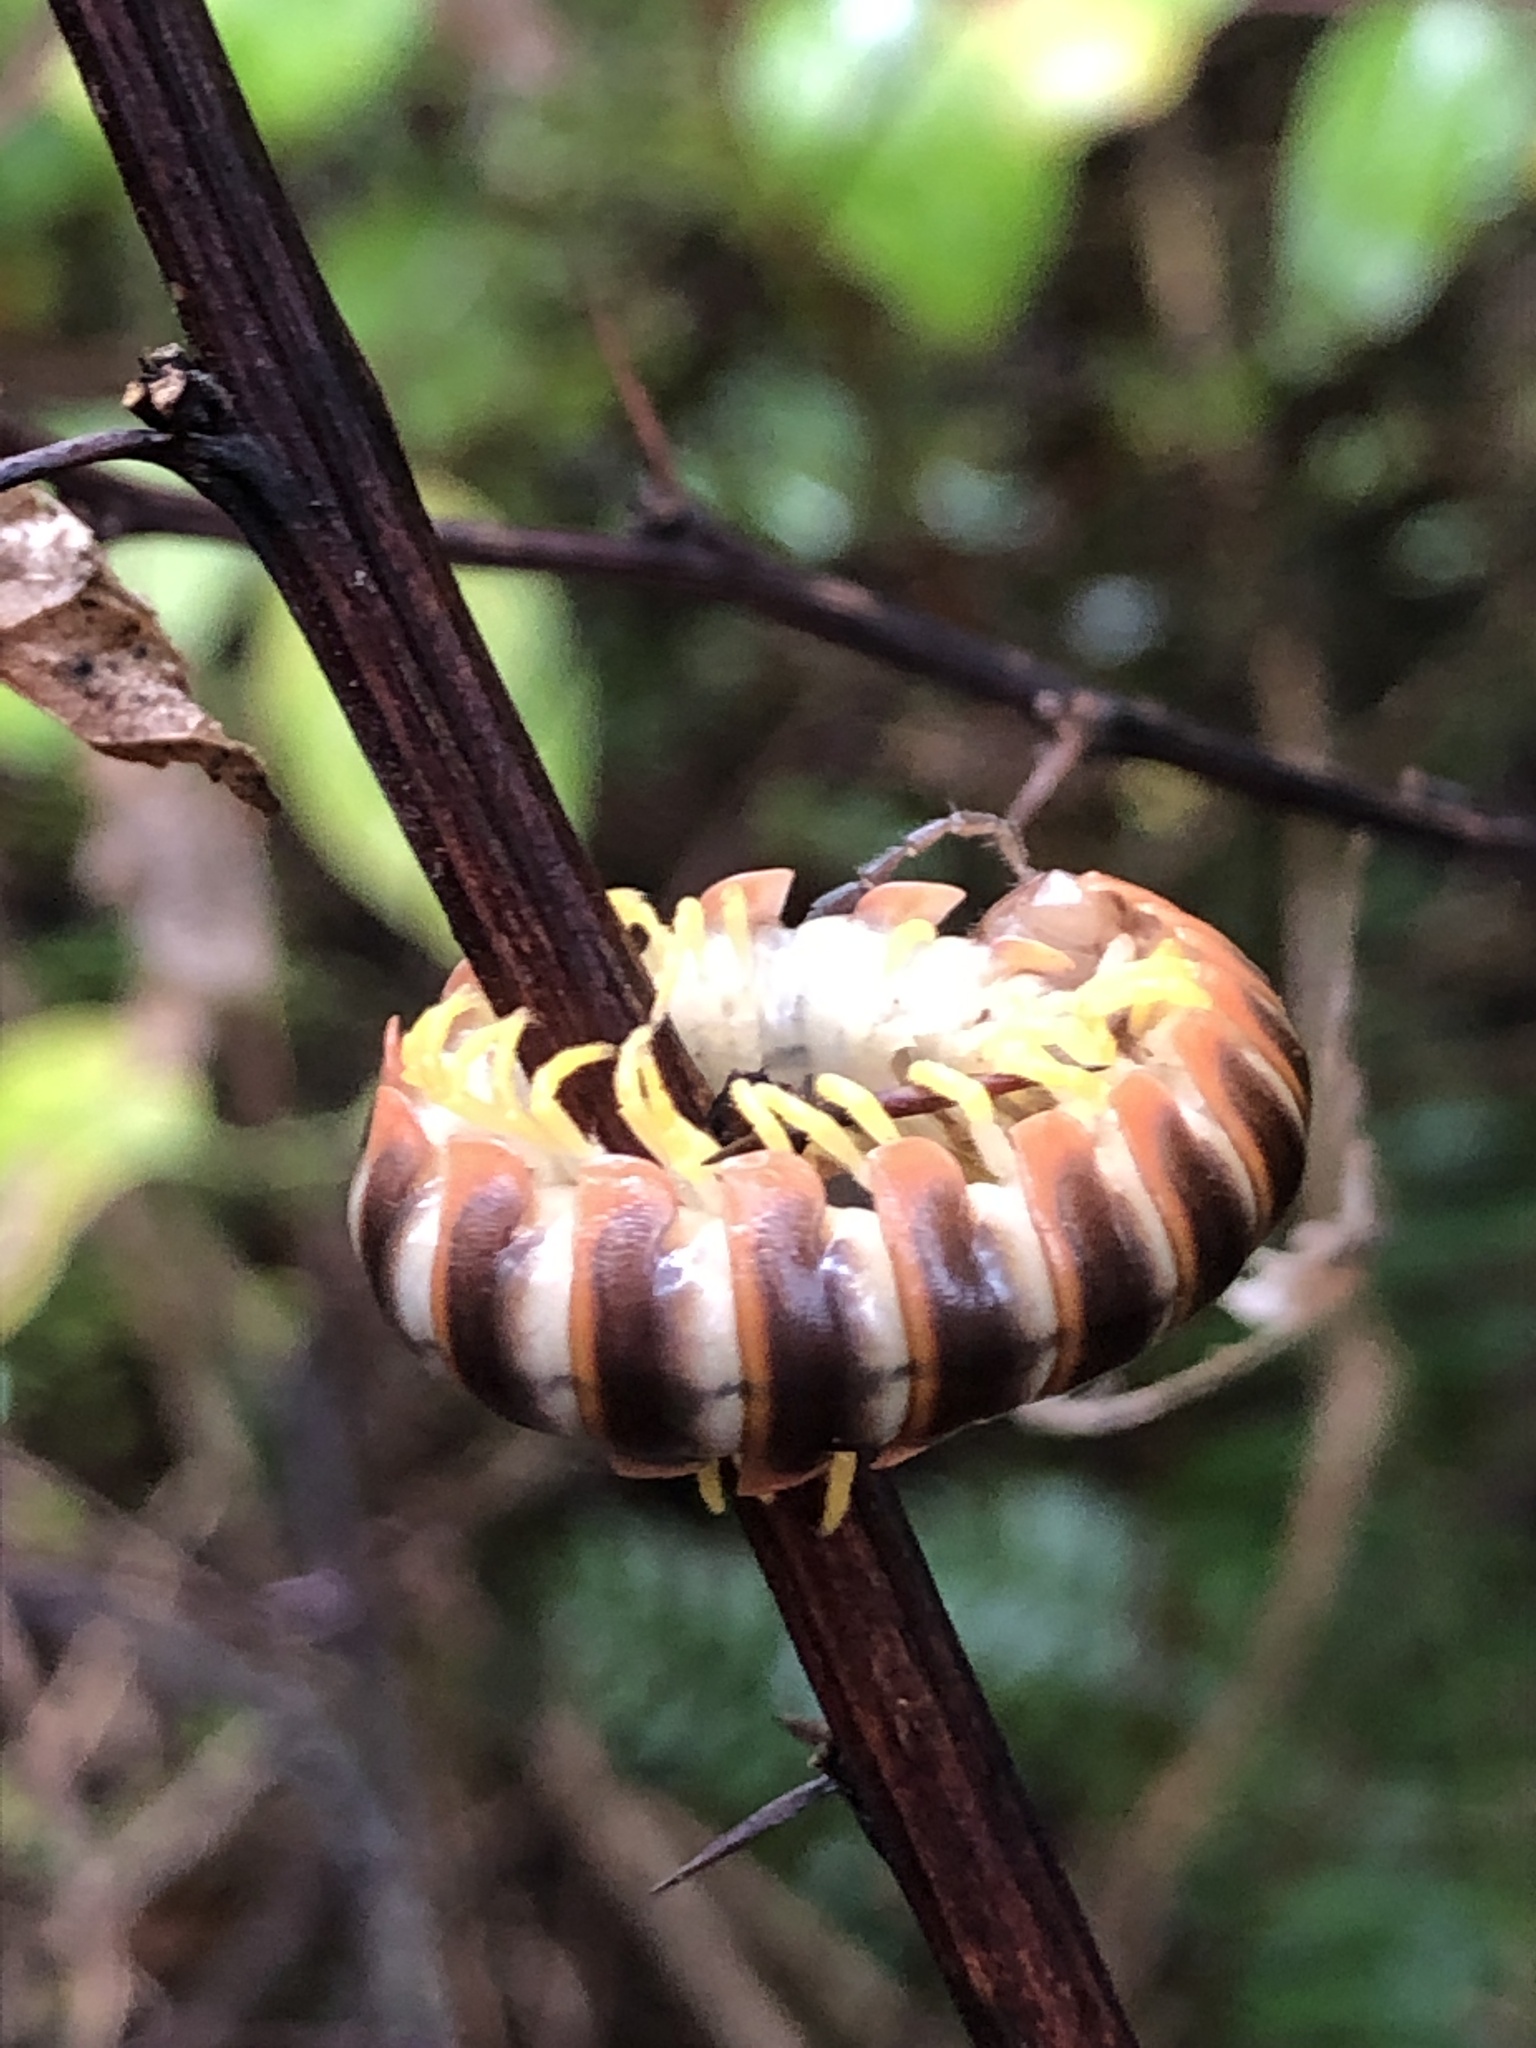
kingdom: Fungi
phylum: Entomophthoromycota
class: Entomophthoromycetes
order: Entomophthorales
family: Entomophthoraceae
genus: Arthrophaga
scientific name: Arthrophaga myriapodina
